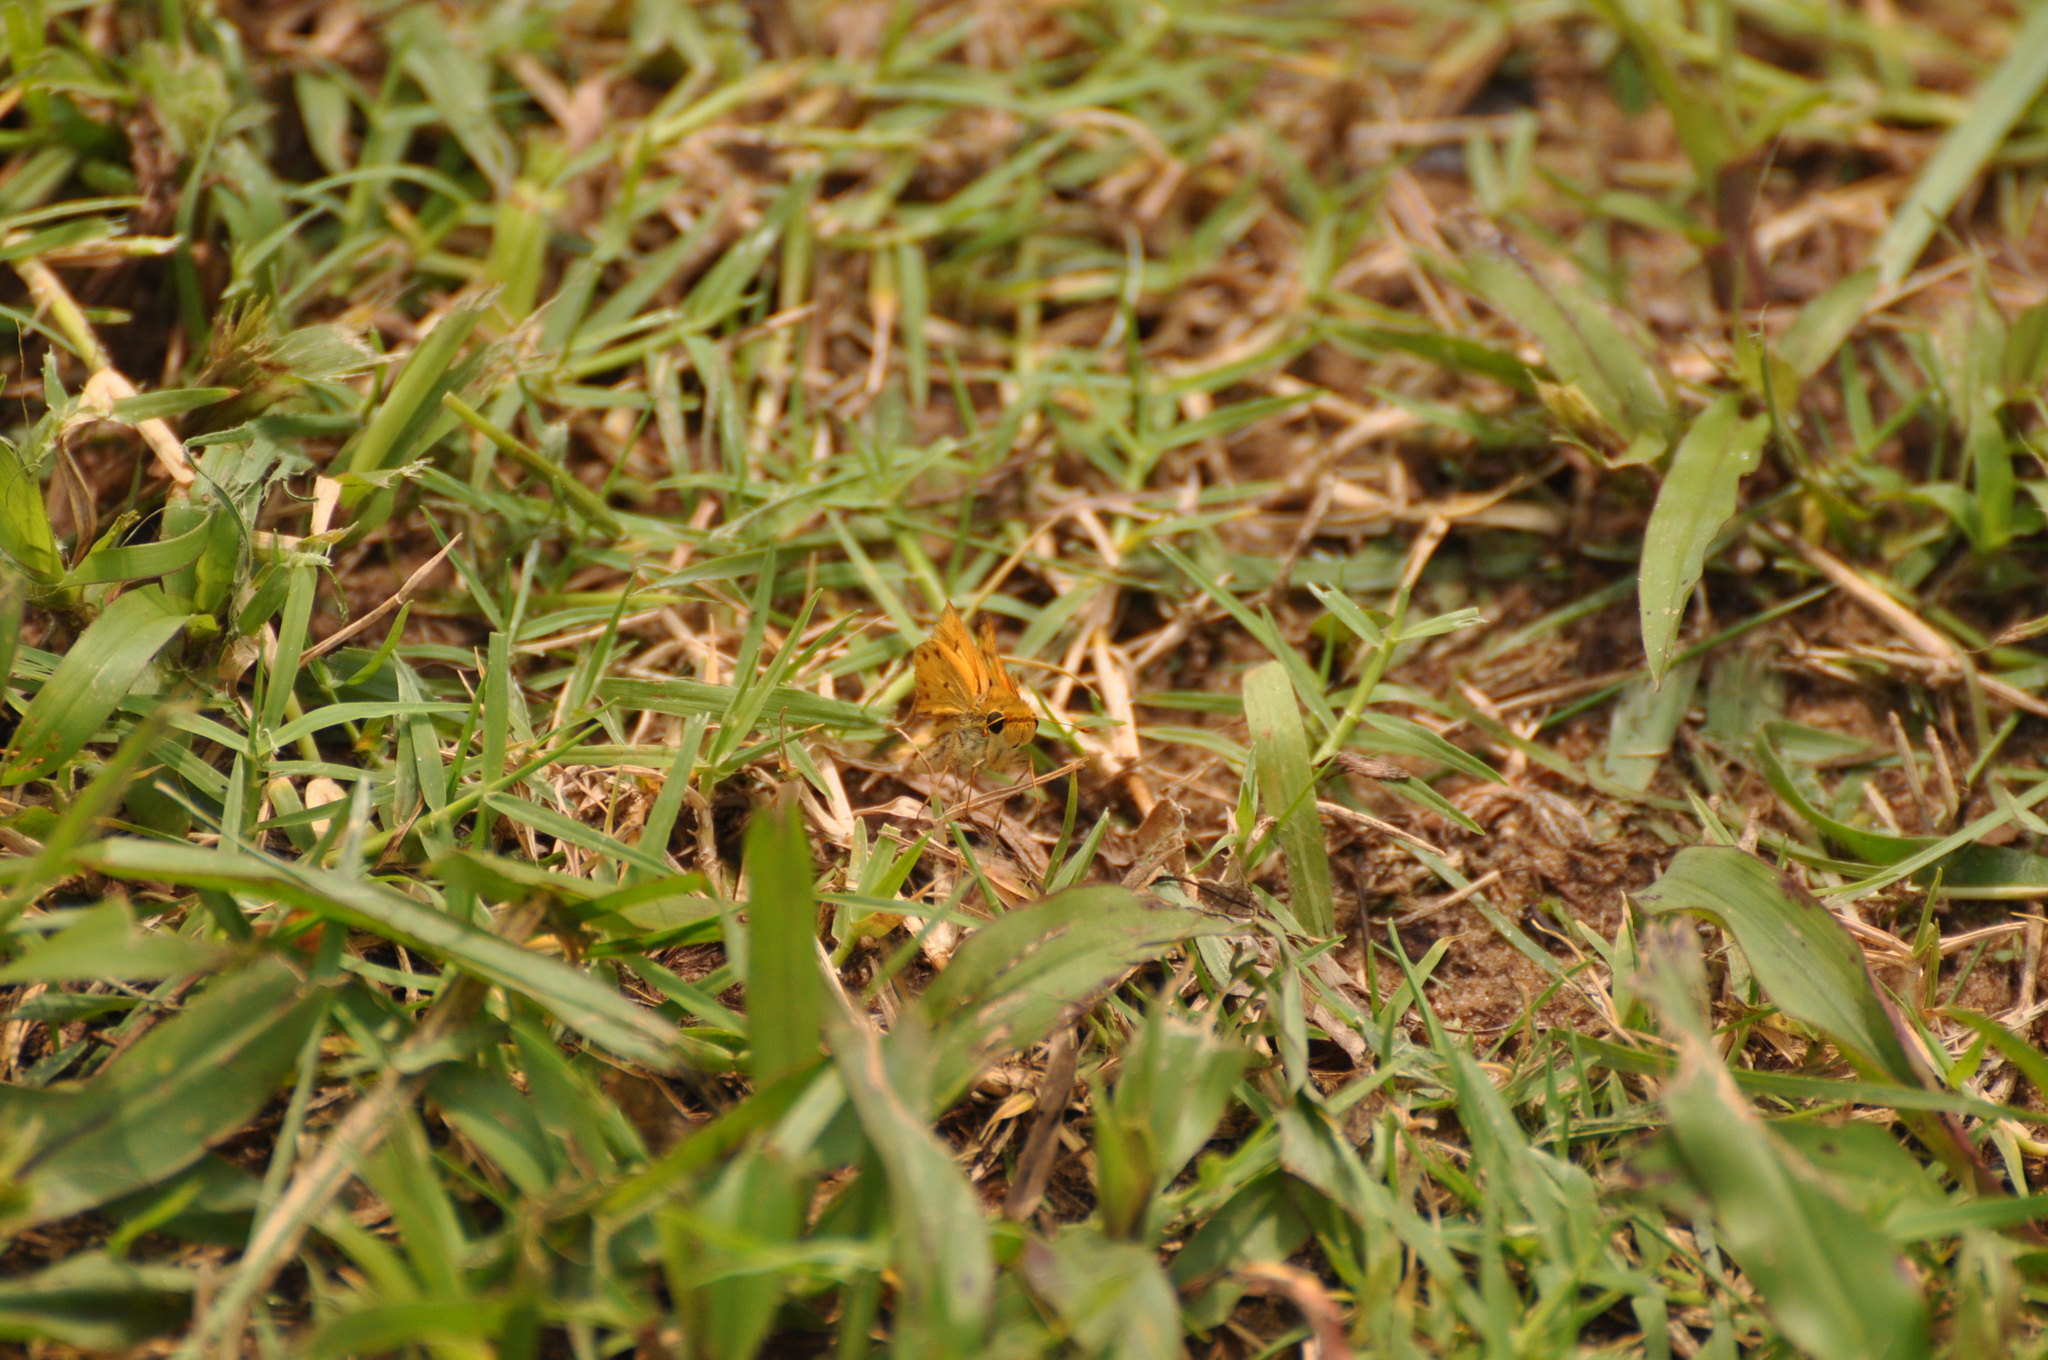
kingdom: Animalia
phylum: Arthropoda
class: Insecta
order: Lepidoptera
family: Hesperiidae
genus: Hylephila
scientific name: Hylephila phyleus
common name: Fiery skipper
